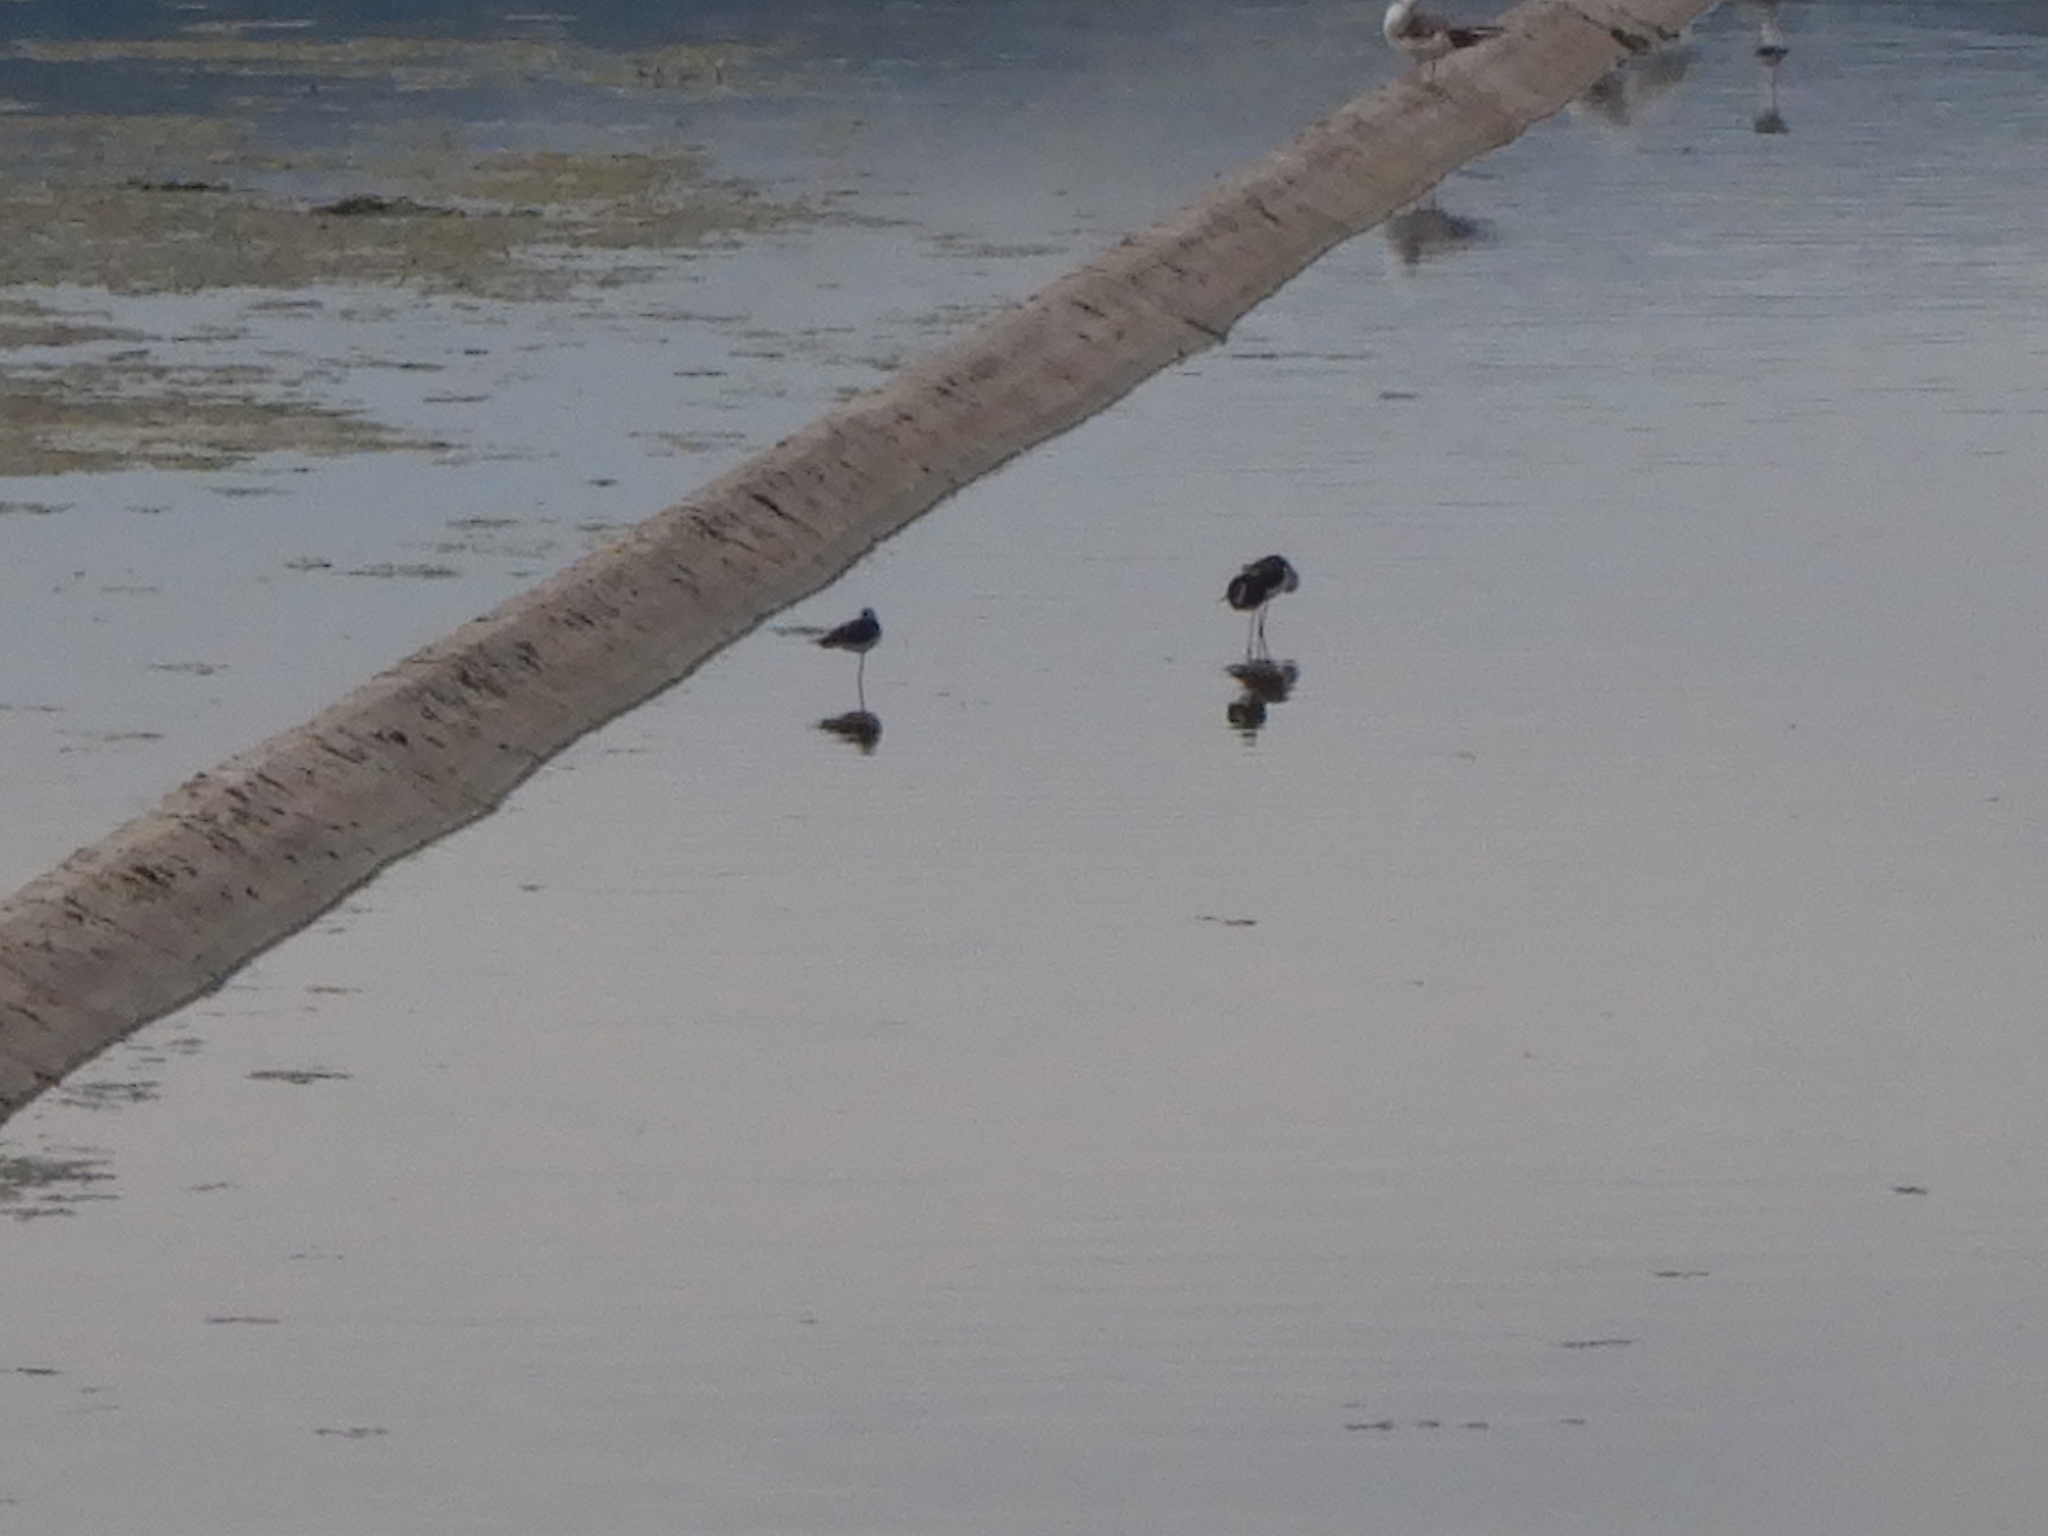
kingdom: Animalia
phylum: Chordata
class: Aves
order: Charadriiformes
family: Recurvirostridae
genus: Himantopus
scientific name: Himantopus himantopus
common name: Black-winged stilt
